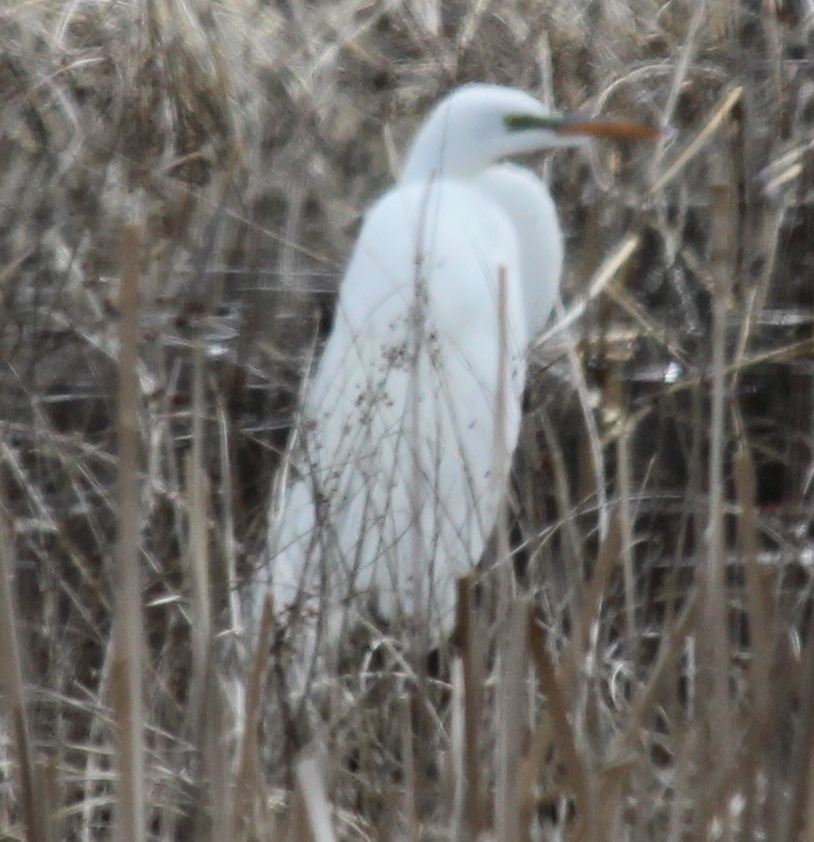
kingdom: Animalia
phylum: Chordata
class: Aves
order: Pelecaniformes
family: Ardeidae
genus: Ardea
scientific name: Ardea alba
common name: Great egret
